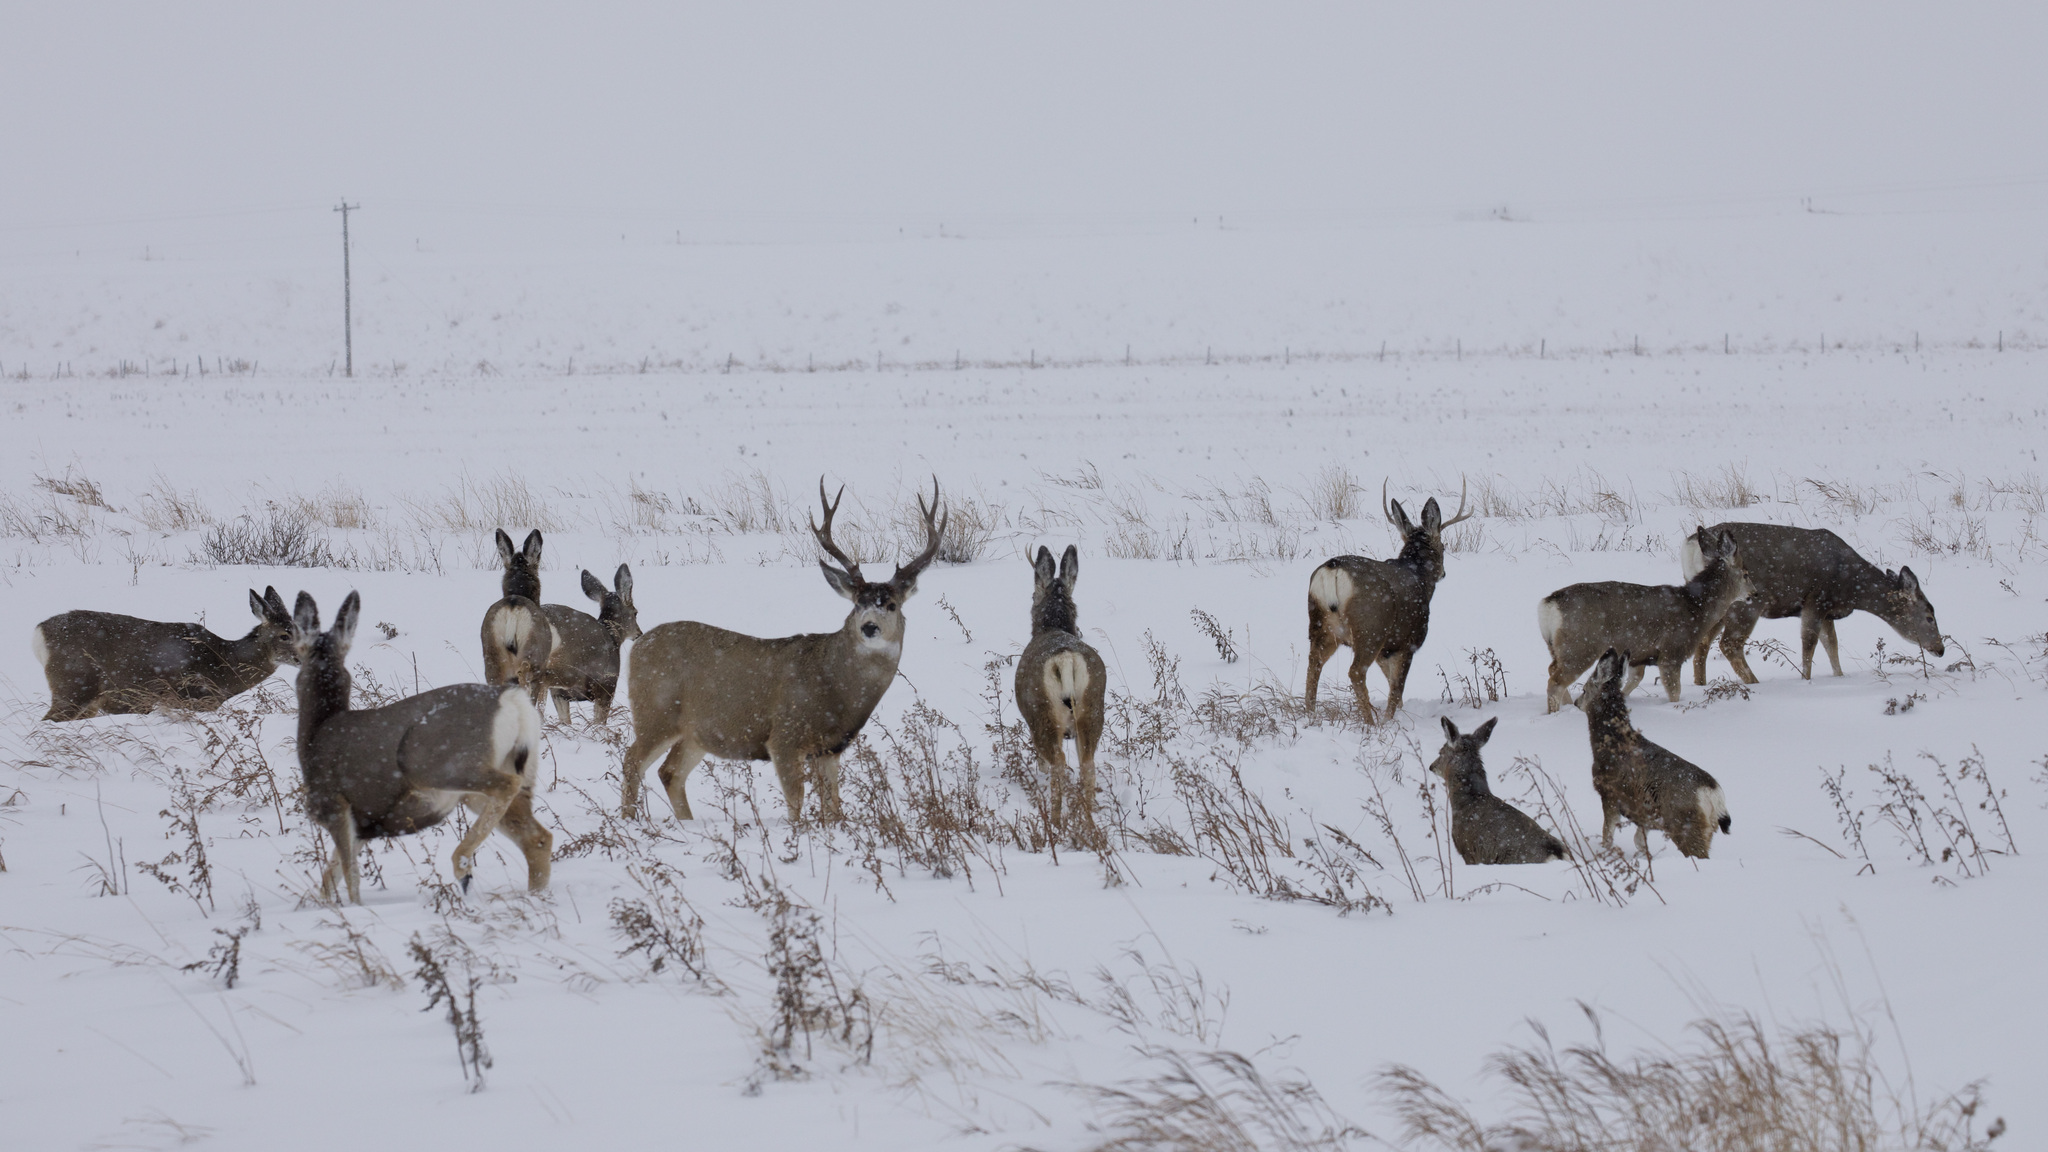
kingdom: Animalia
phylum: Chordata
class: Mammalia
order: Artiodactyla
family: Cervidae
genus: Odocoileus
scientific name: Odocoileus hemionus
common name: Mule deer
